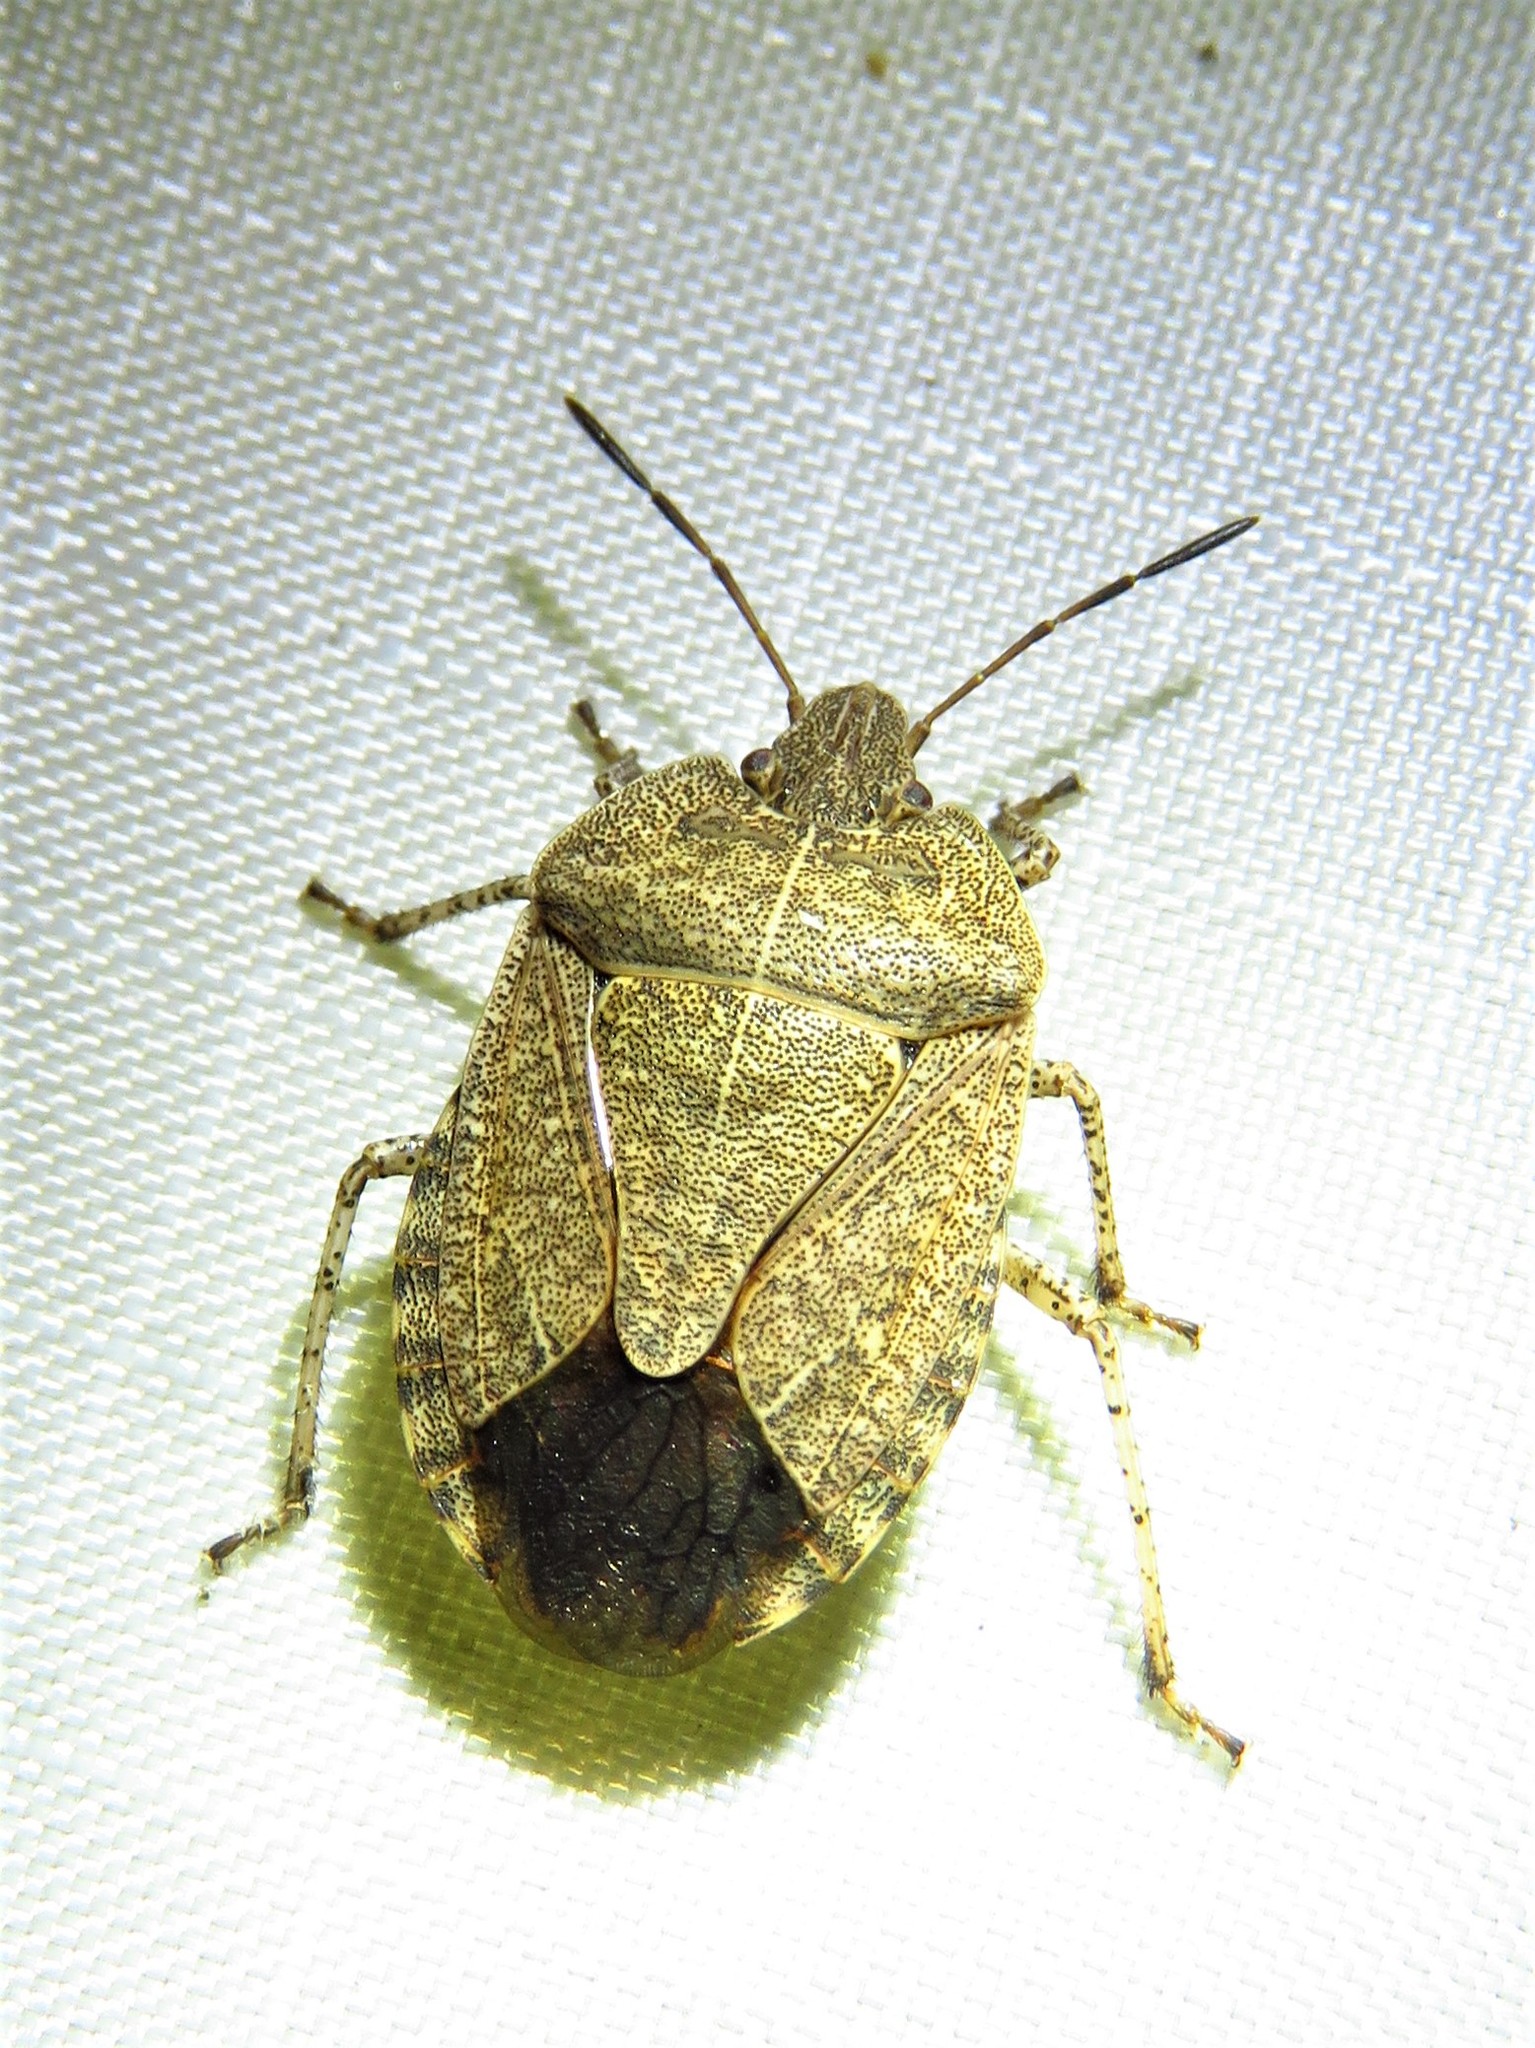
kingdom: Animalia
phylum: Arthropoda
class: Insecta
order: Hemiptera
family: Pentatomidae
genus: Menecles
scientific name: Menecles insertus
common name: Elf shoe stink bug
